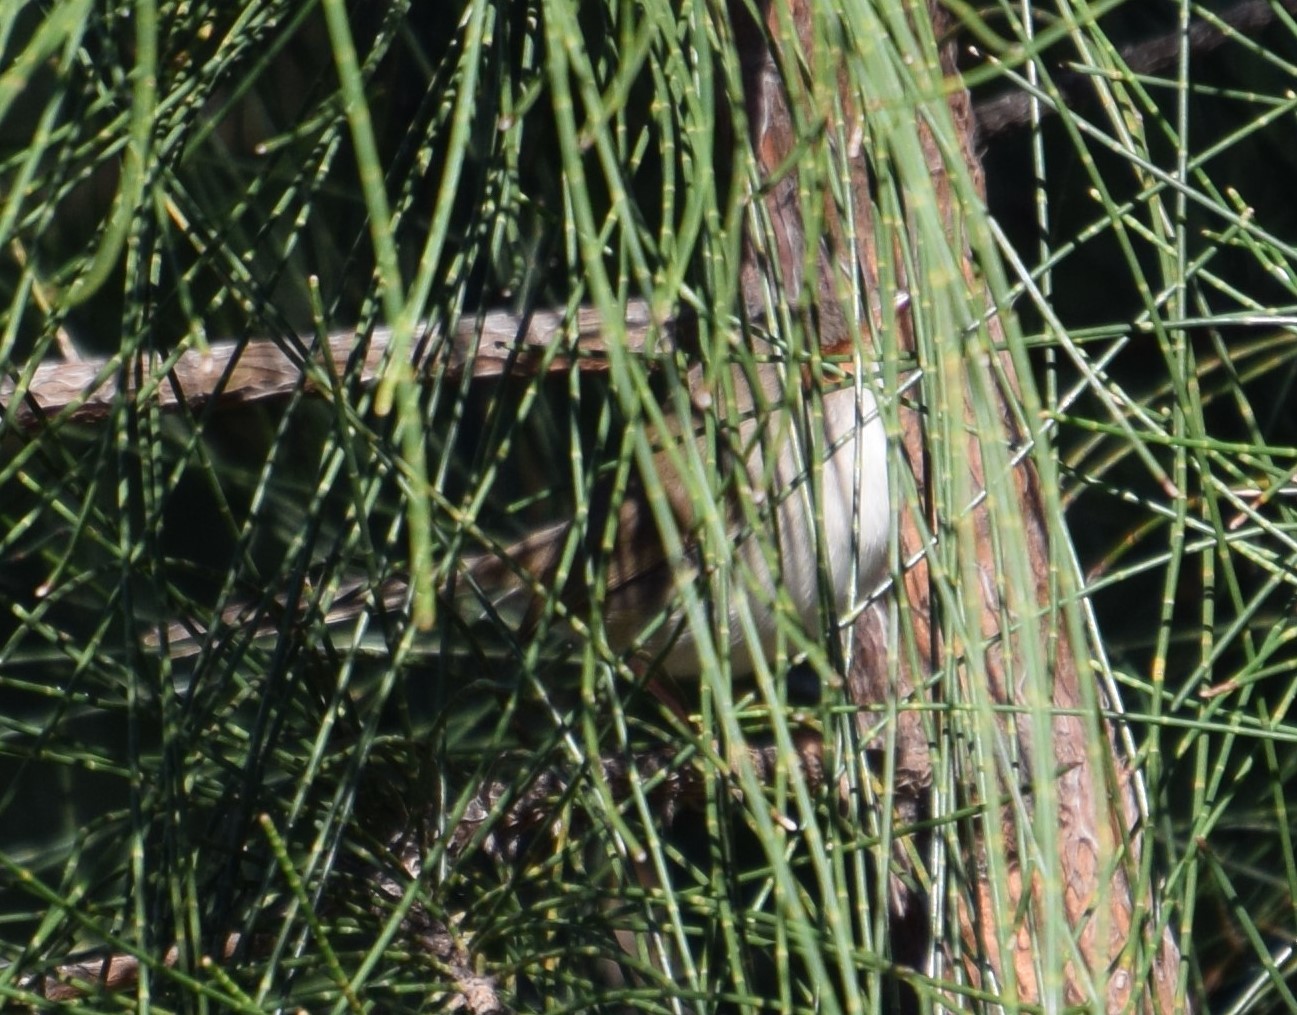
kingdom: Animalia
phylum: Chordata
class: Aves
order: Passeriformes
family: Maluridae
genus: Malurus
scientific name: Malurus cyaneus
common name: Superb fairywren
